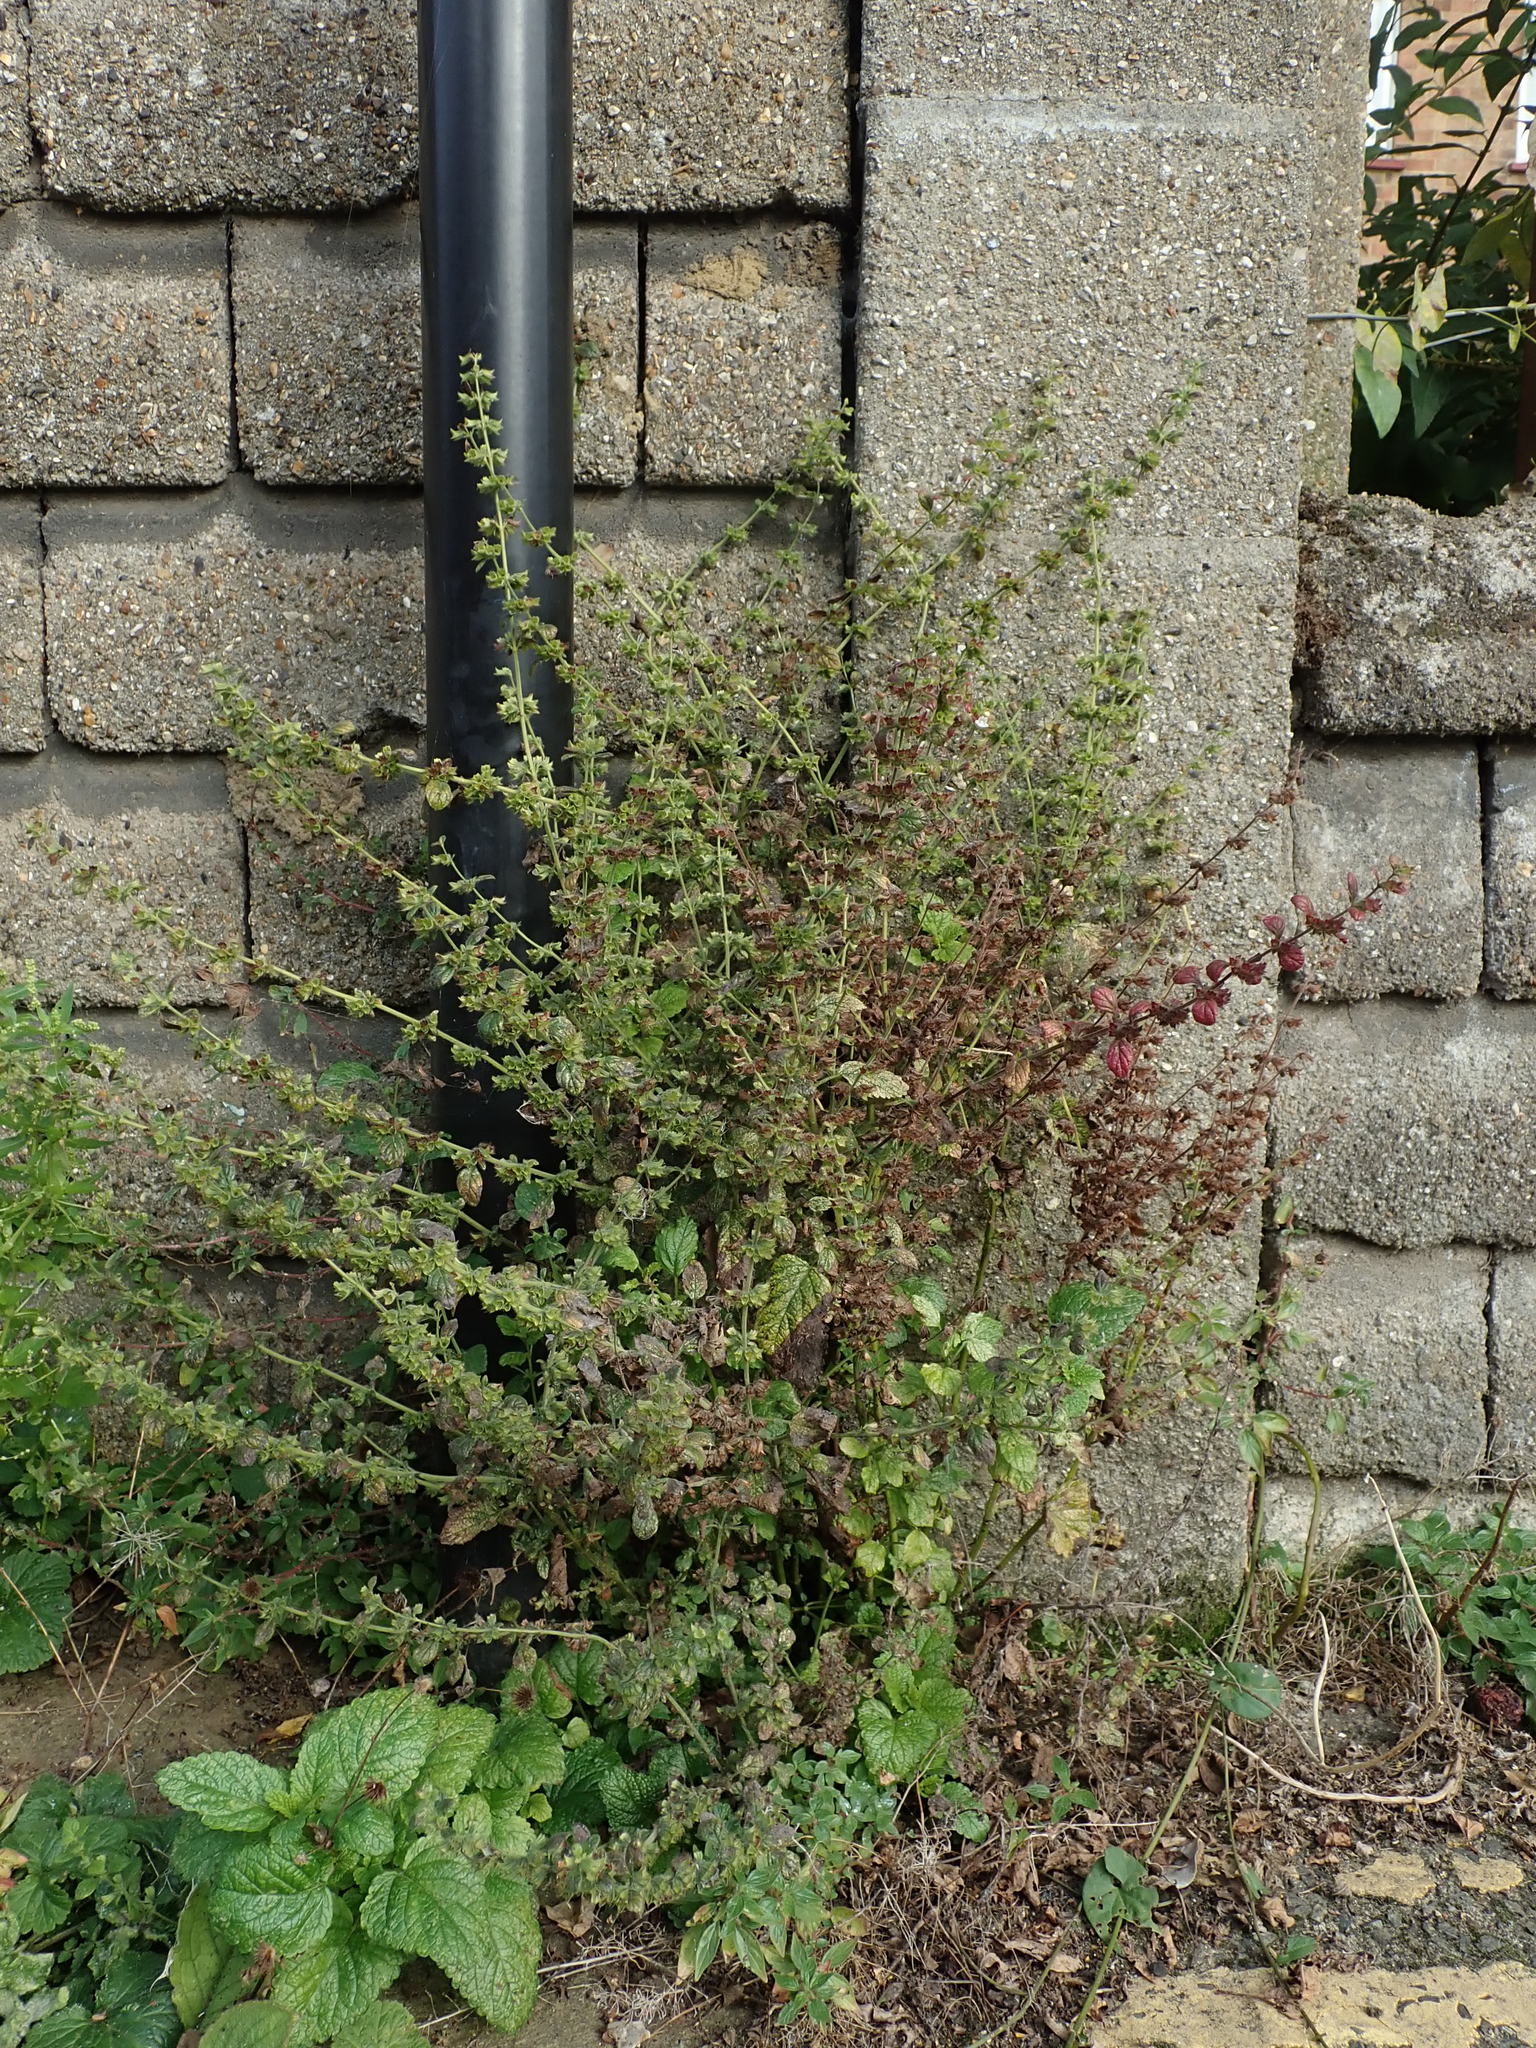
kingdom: Plantae
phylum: Tracheophyta
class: Magnoliopsida
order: Lamiales
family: Lamiaceae
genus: Melissa
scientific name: Melissa officinalis
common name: Balm
